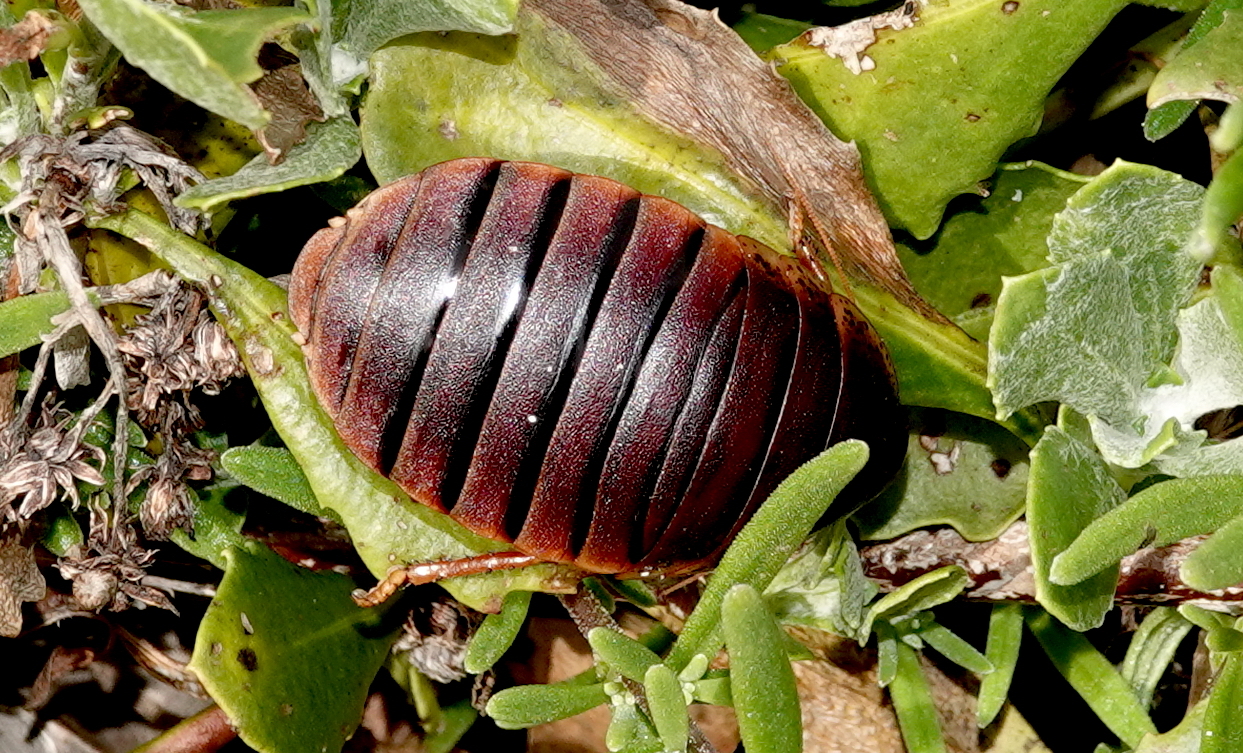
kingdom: Animalia
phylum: Arthropoda
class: Insecta
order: Blattodea
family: Blaberidae
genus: Aptera
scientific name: Aptera fusca
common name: Cape mountain cockroach
